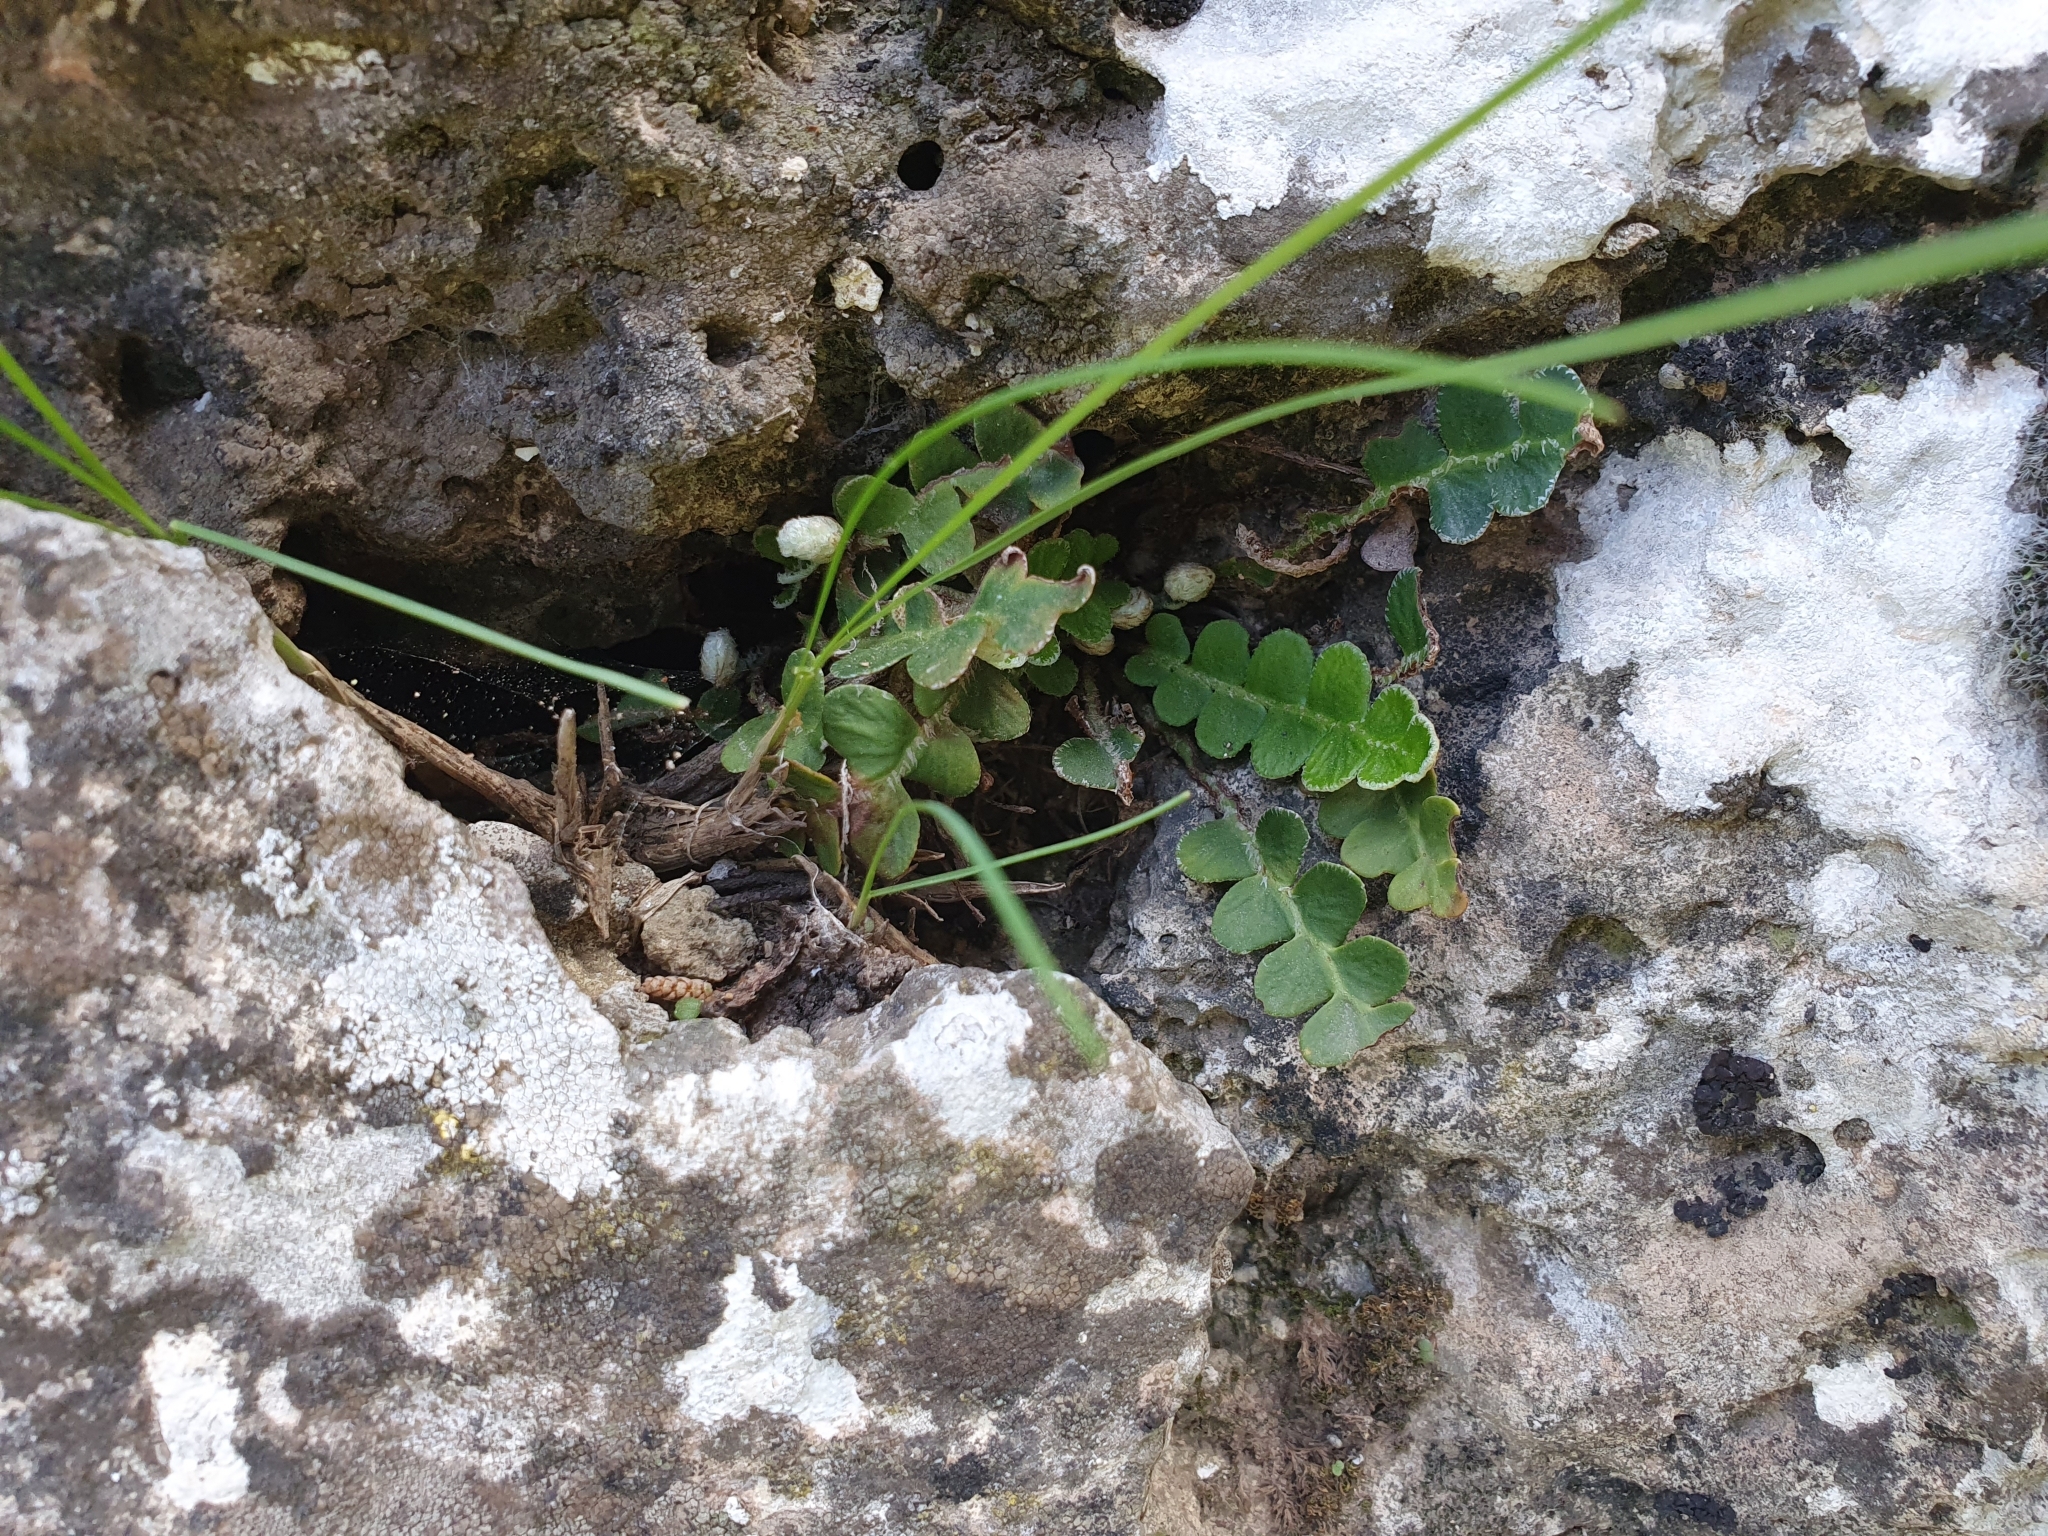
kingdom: Plantae
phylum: Tracheophyta
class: Polypodiopsida
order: Polypodiales
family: Aspleniaceae
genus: Asplenium
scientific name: Asplenium ceterach
